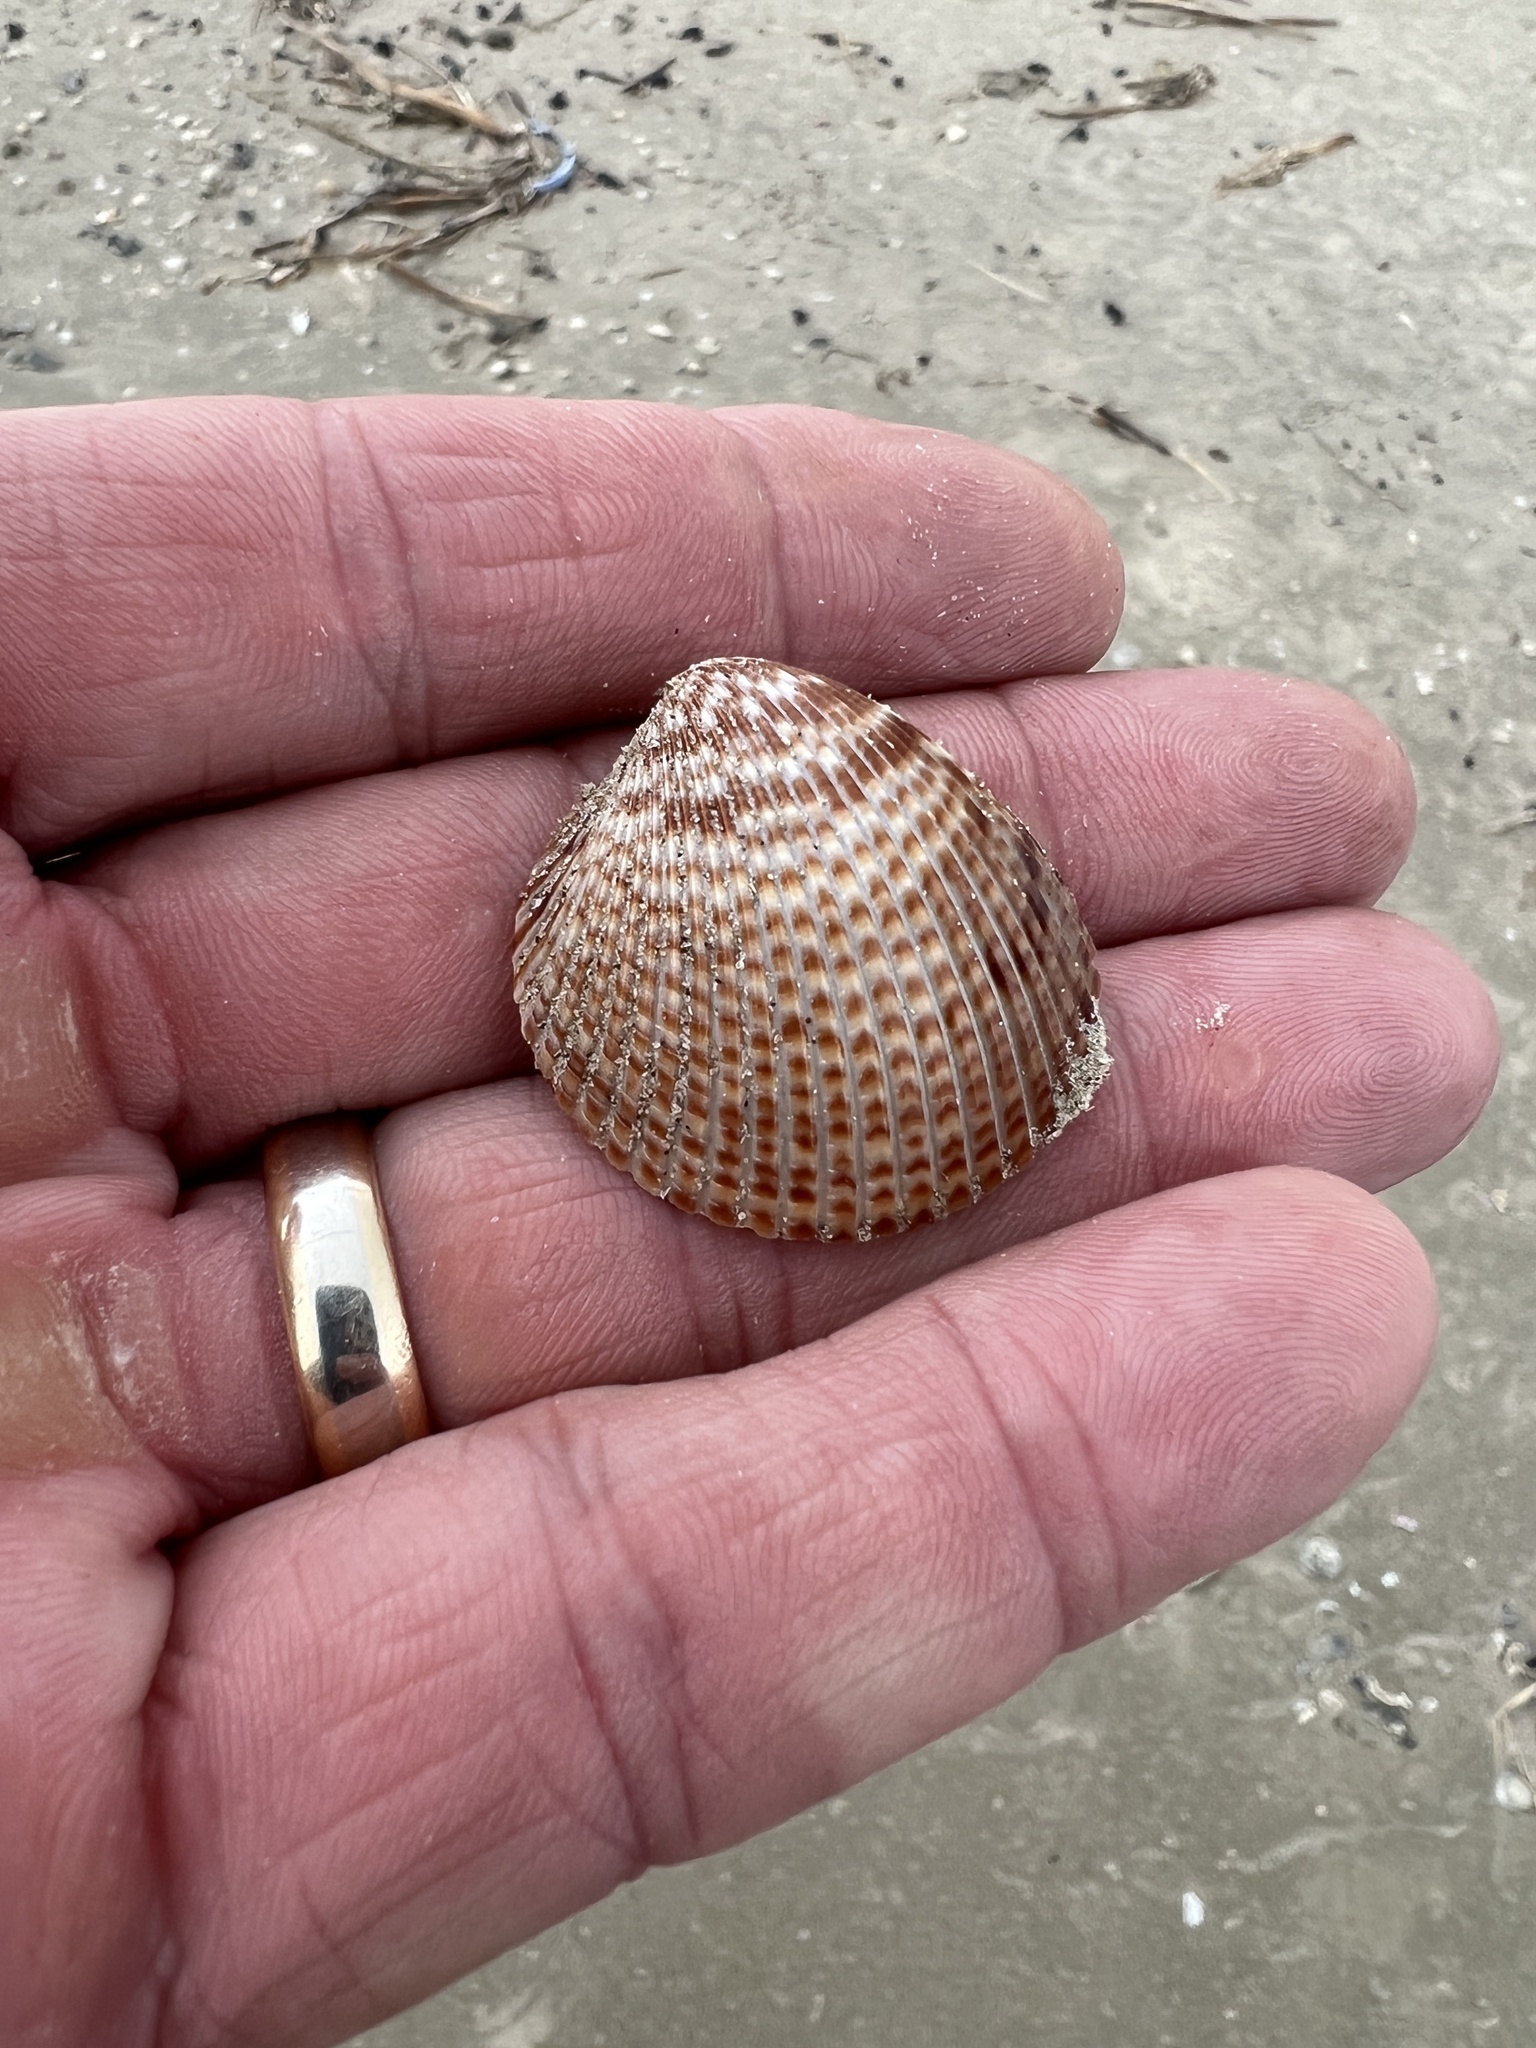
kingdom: Animalia
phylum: Mollusca
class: Bivalvia
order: Cardiida
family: Cardiidae
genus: Dinocardium
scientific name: Dinocardium robustum
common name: Atlantic giant cockle
